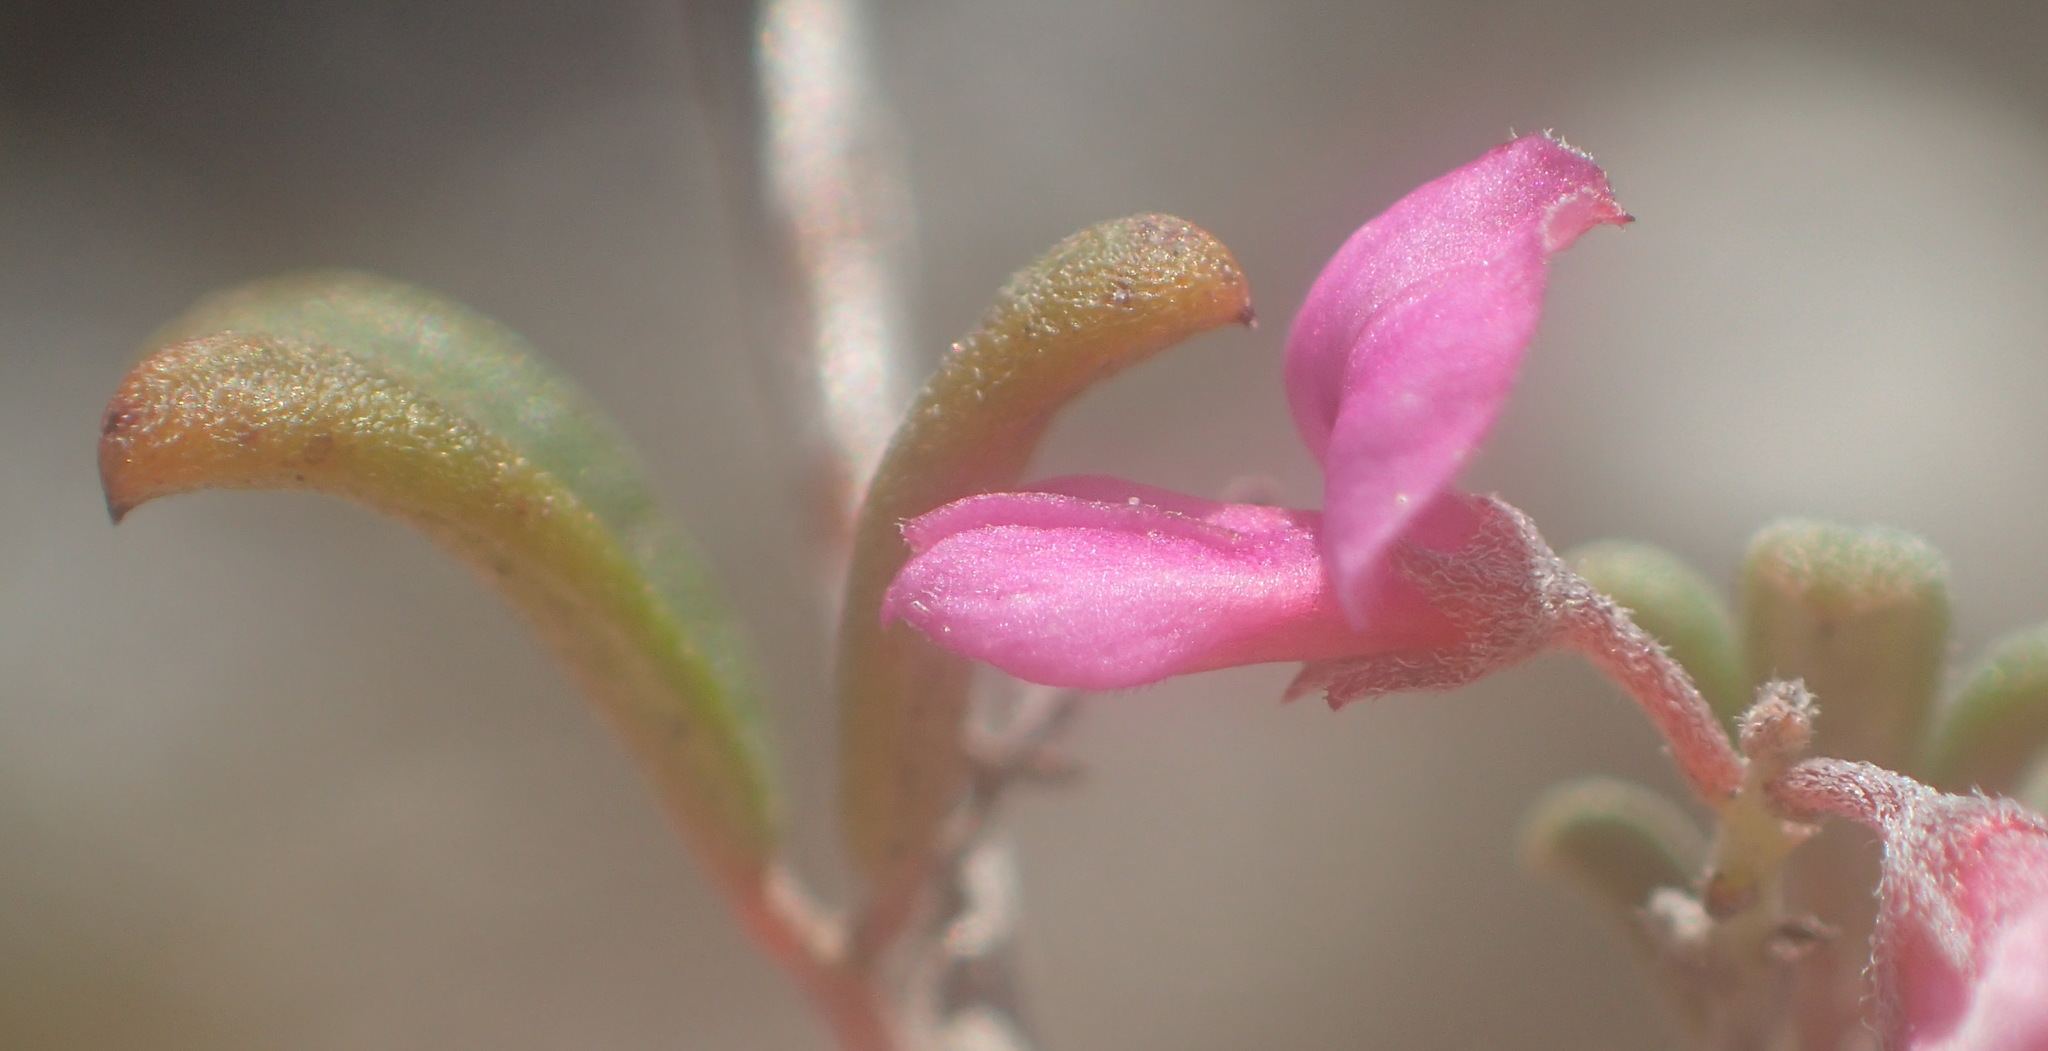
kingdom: Plantae
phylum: Tracheophyta
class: Magnoliopsida
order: Fabales
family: Fabaceae
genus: Indigofera
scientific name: Indigofera
